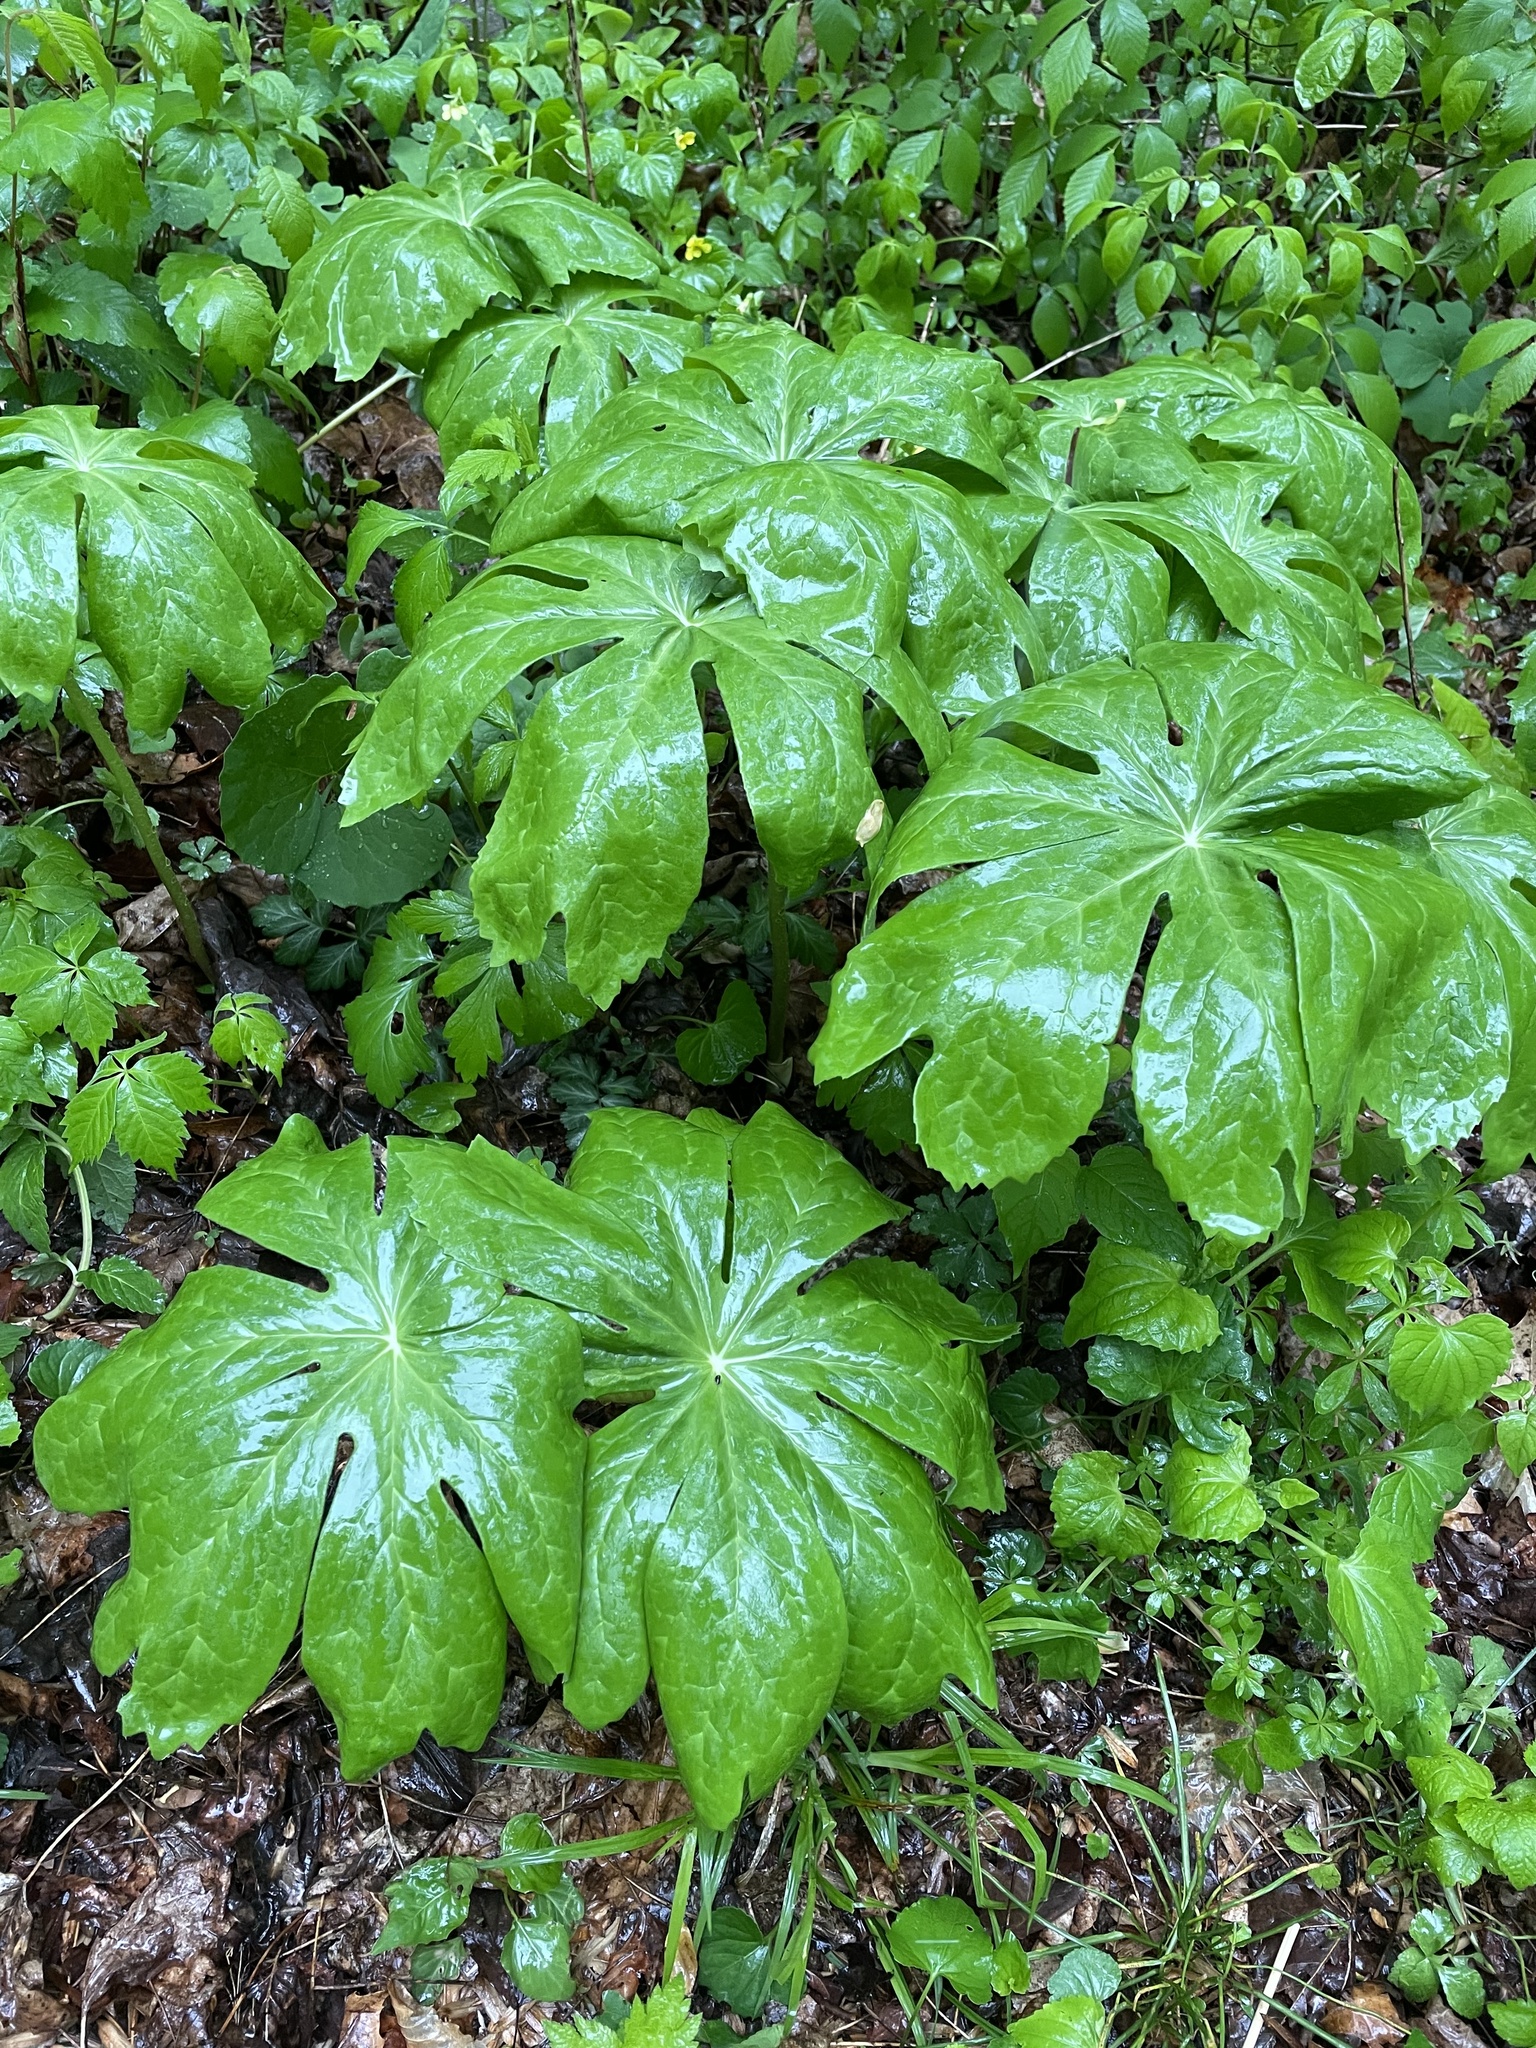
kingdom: Plantae
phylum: Tracheophyta
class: Magnoliopsida
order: Ranunculales
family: Berberidaceae
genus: Podophyllum
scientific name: Podophyllum peltatum
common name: Wild mandrake
